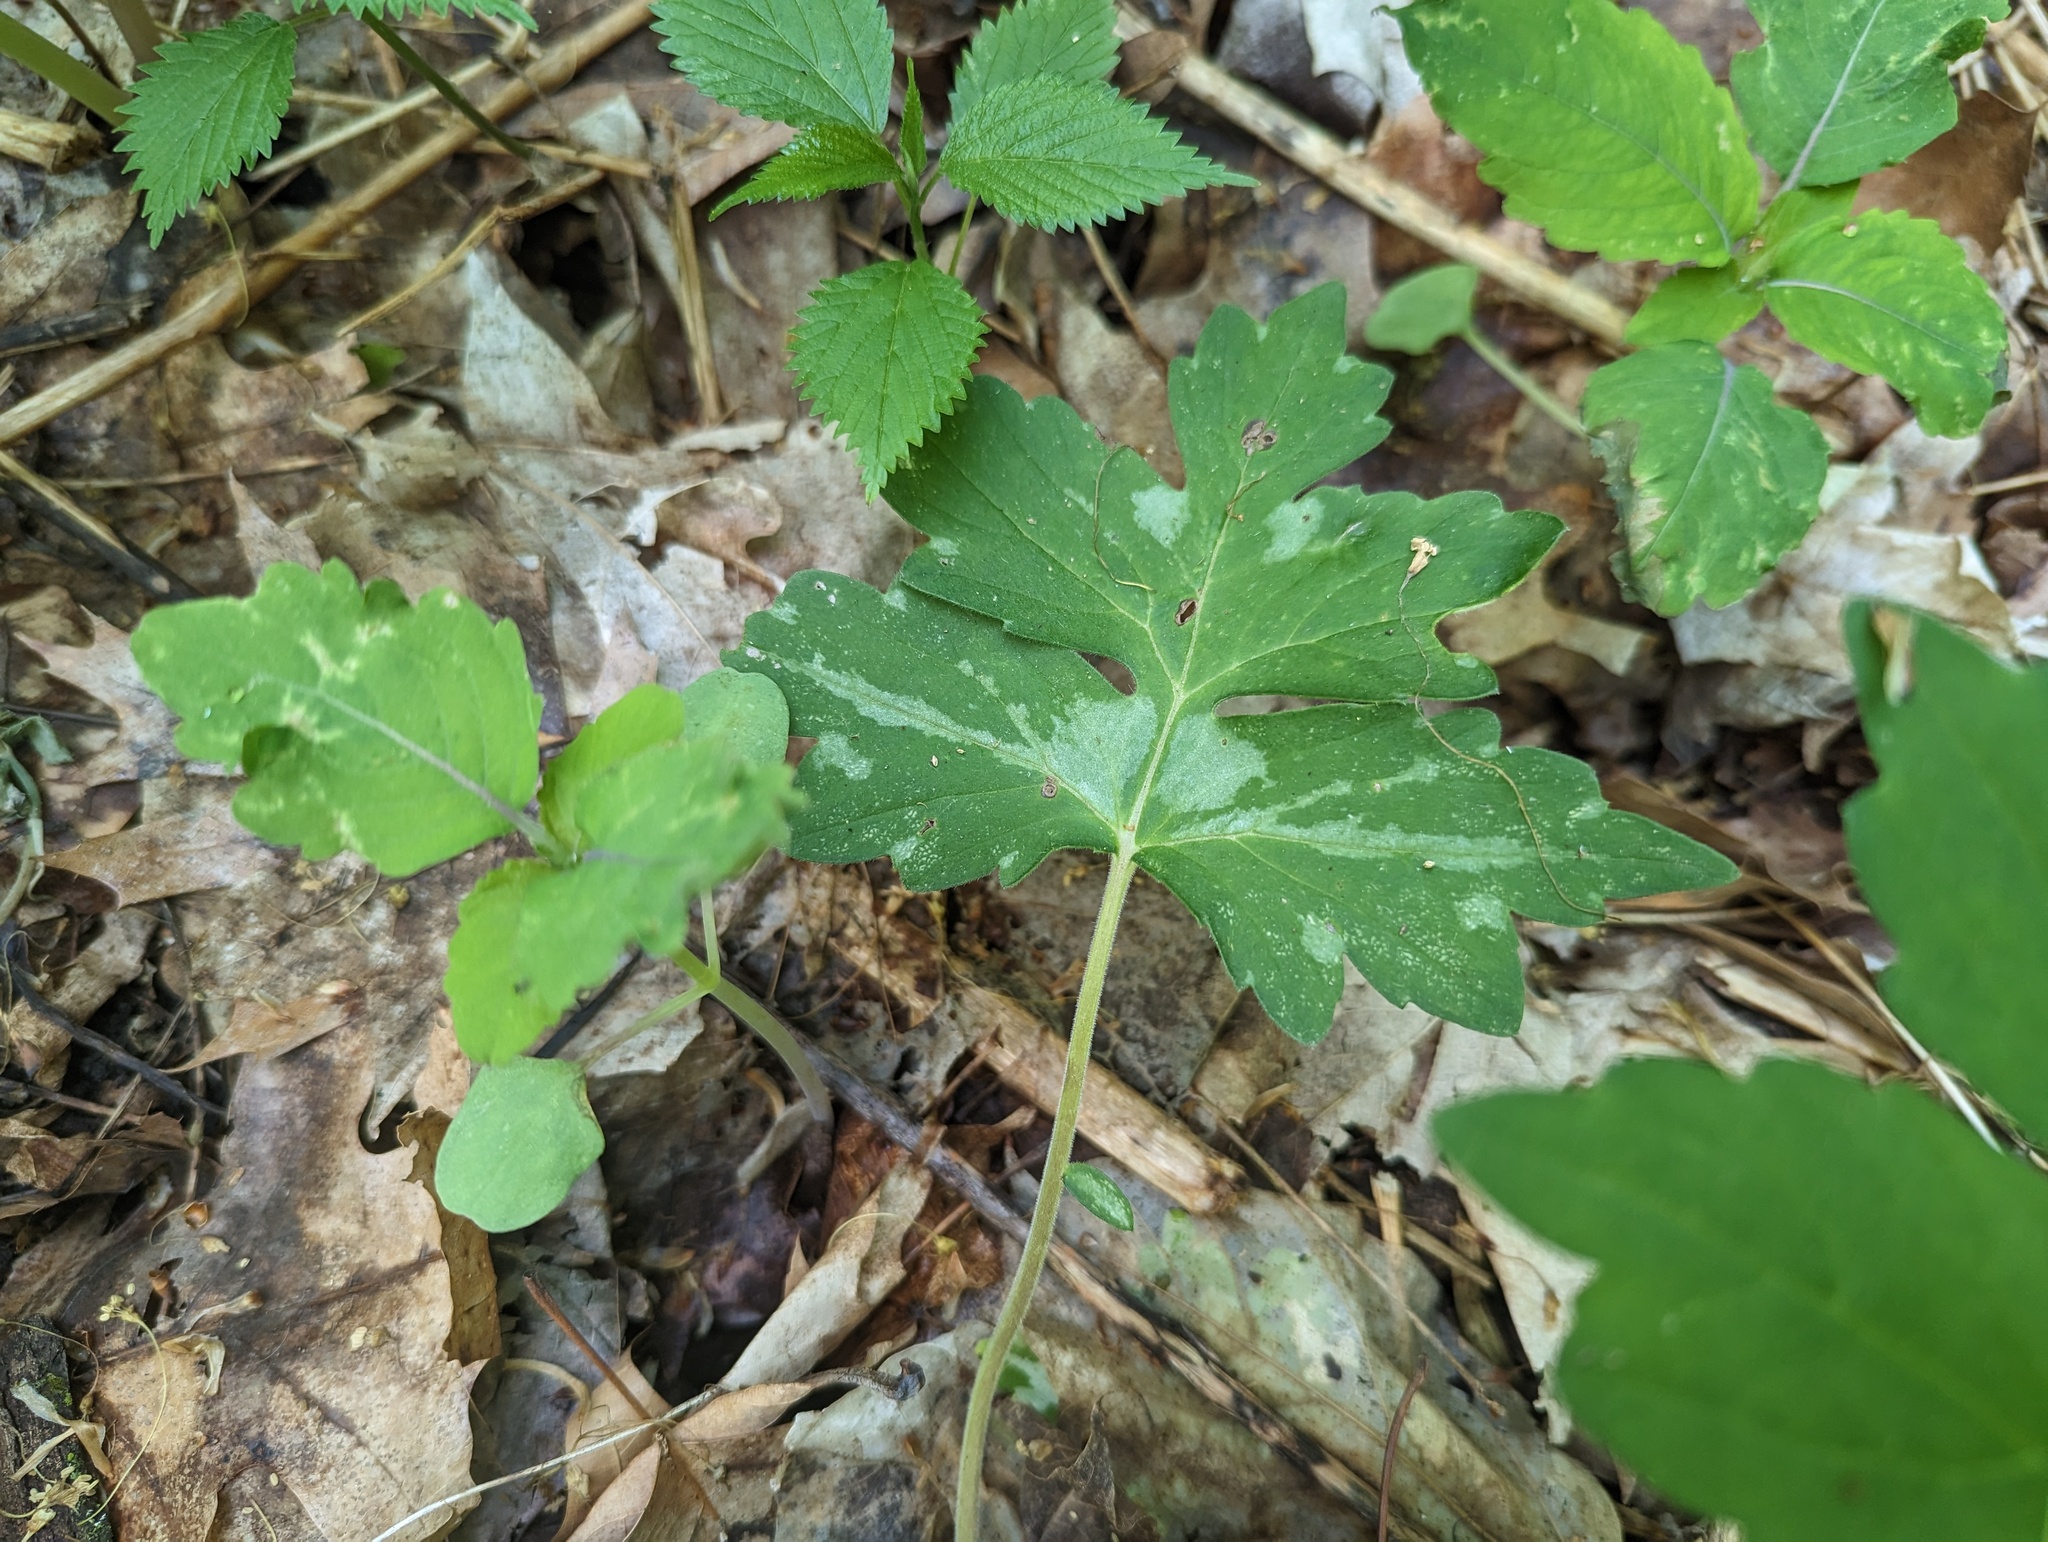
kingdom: Plantae
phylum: Tracheophyta
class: Magnoliopsida
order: Boraginales
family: Hydrophyllaceae
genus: Hydrophyllum
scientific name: Hydrophyllum appendiculatum
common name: Appendaged waterleaf
